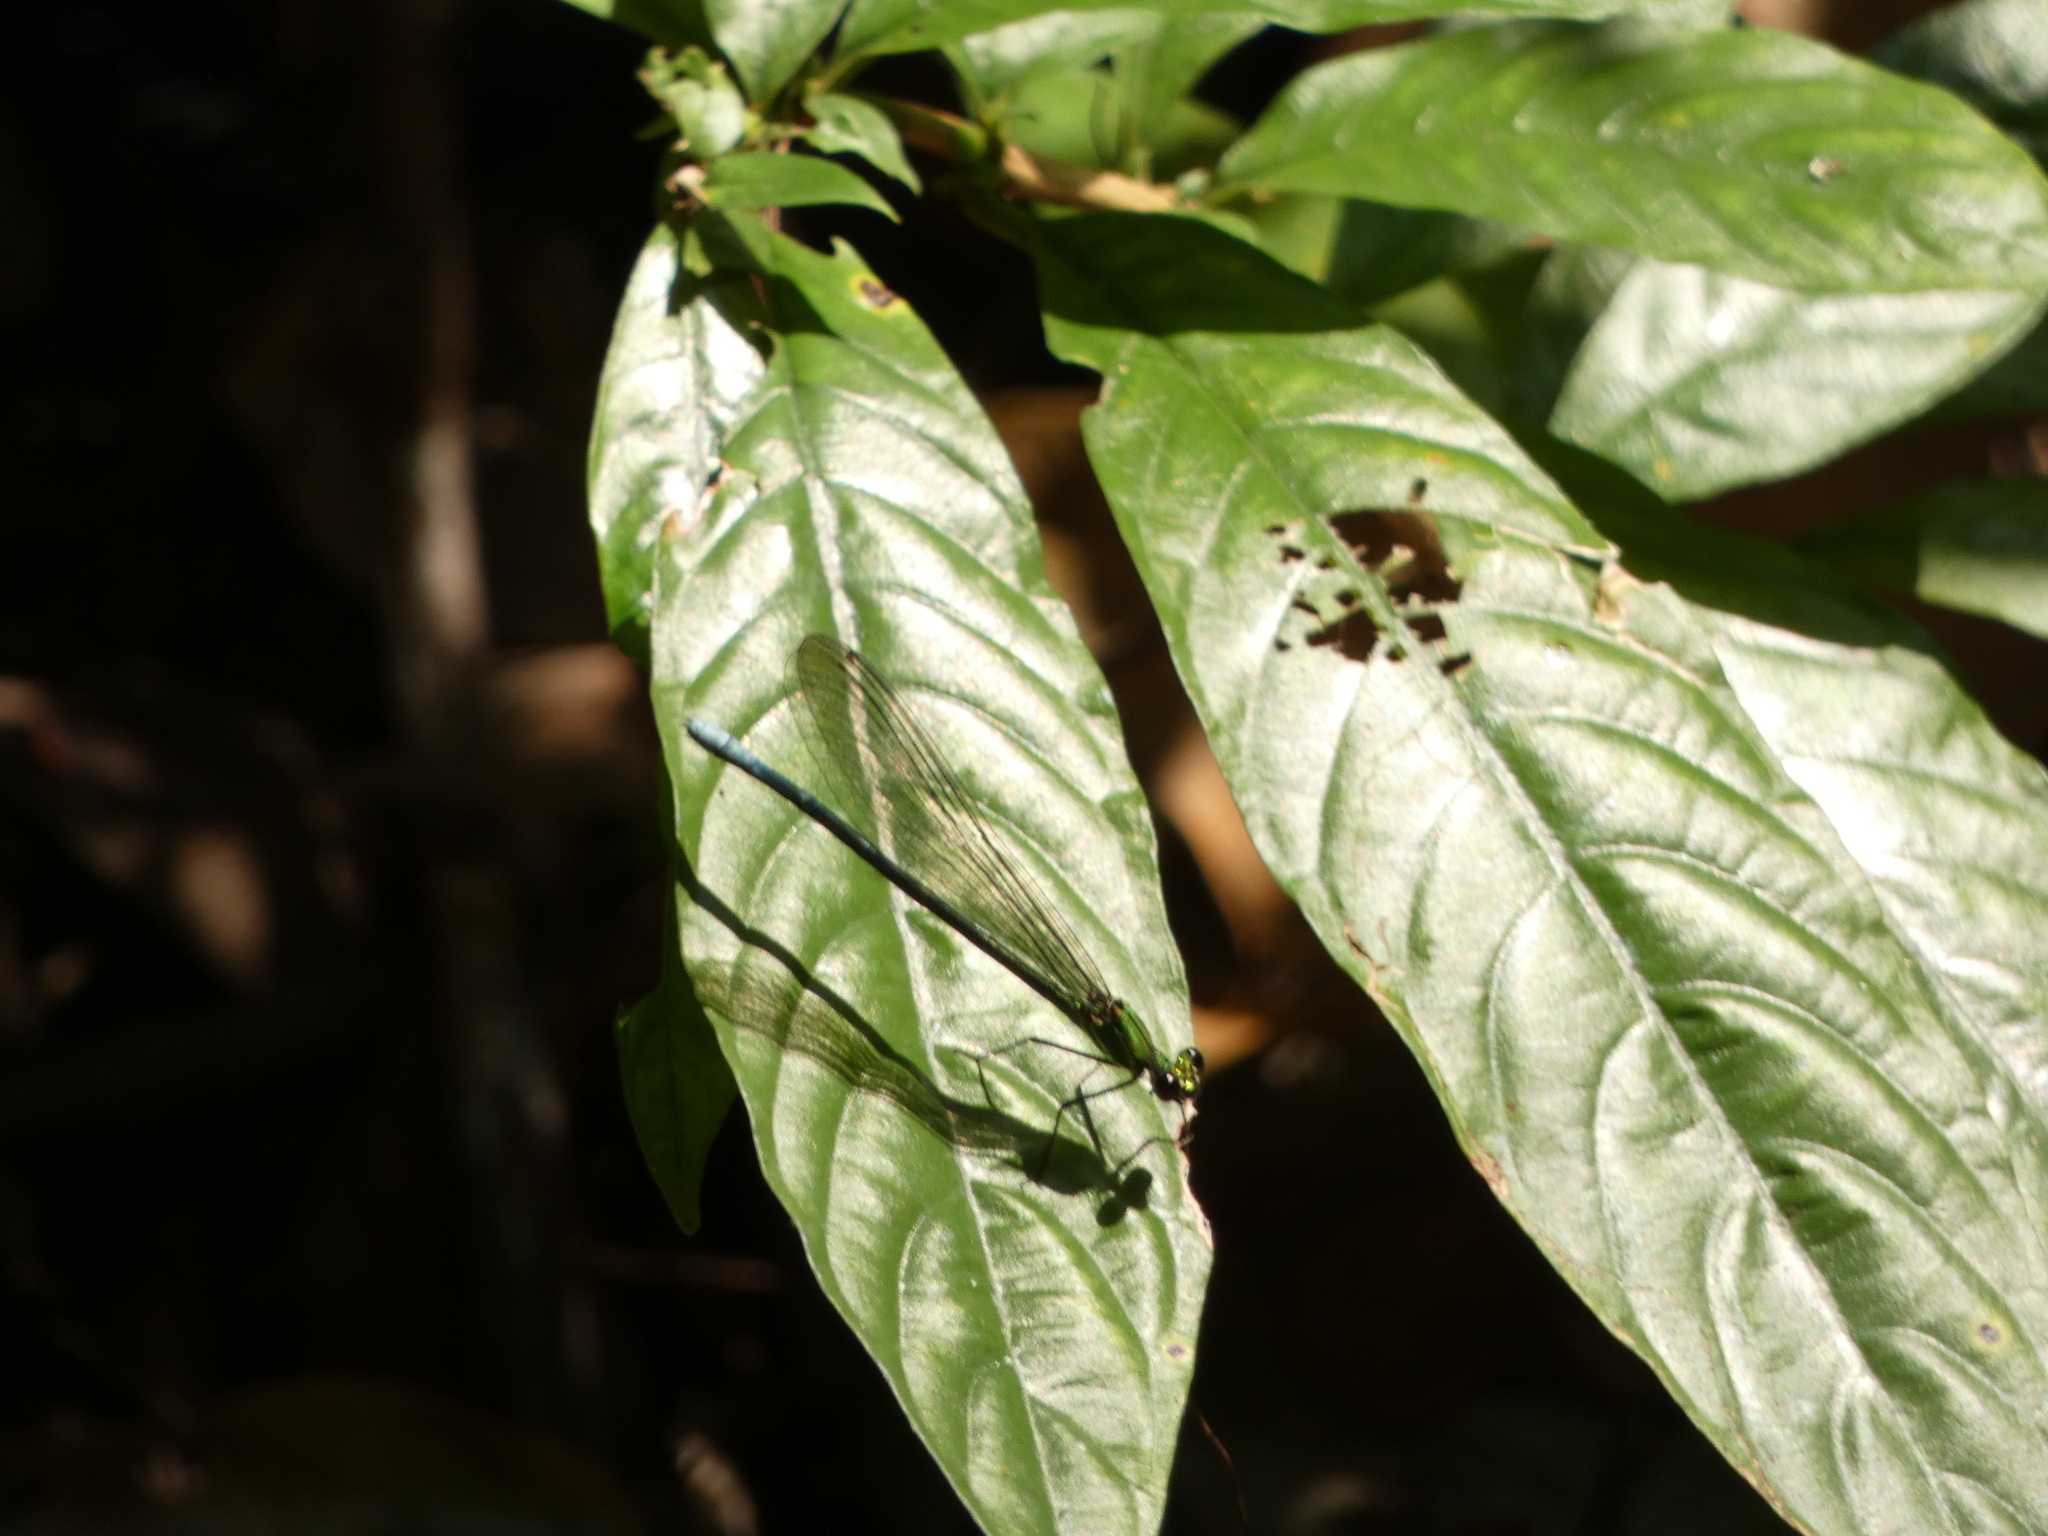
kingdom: Animalia
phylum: Arthropoda
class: Insecta
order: Odonata
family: Calopterygidae
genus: Mnais
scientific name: Mnais andersoni
